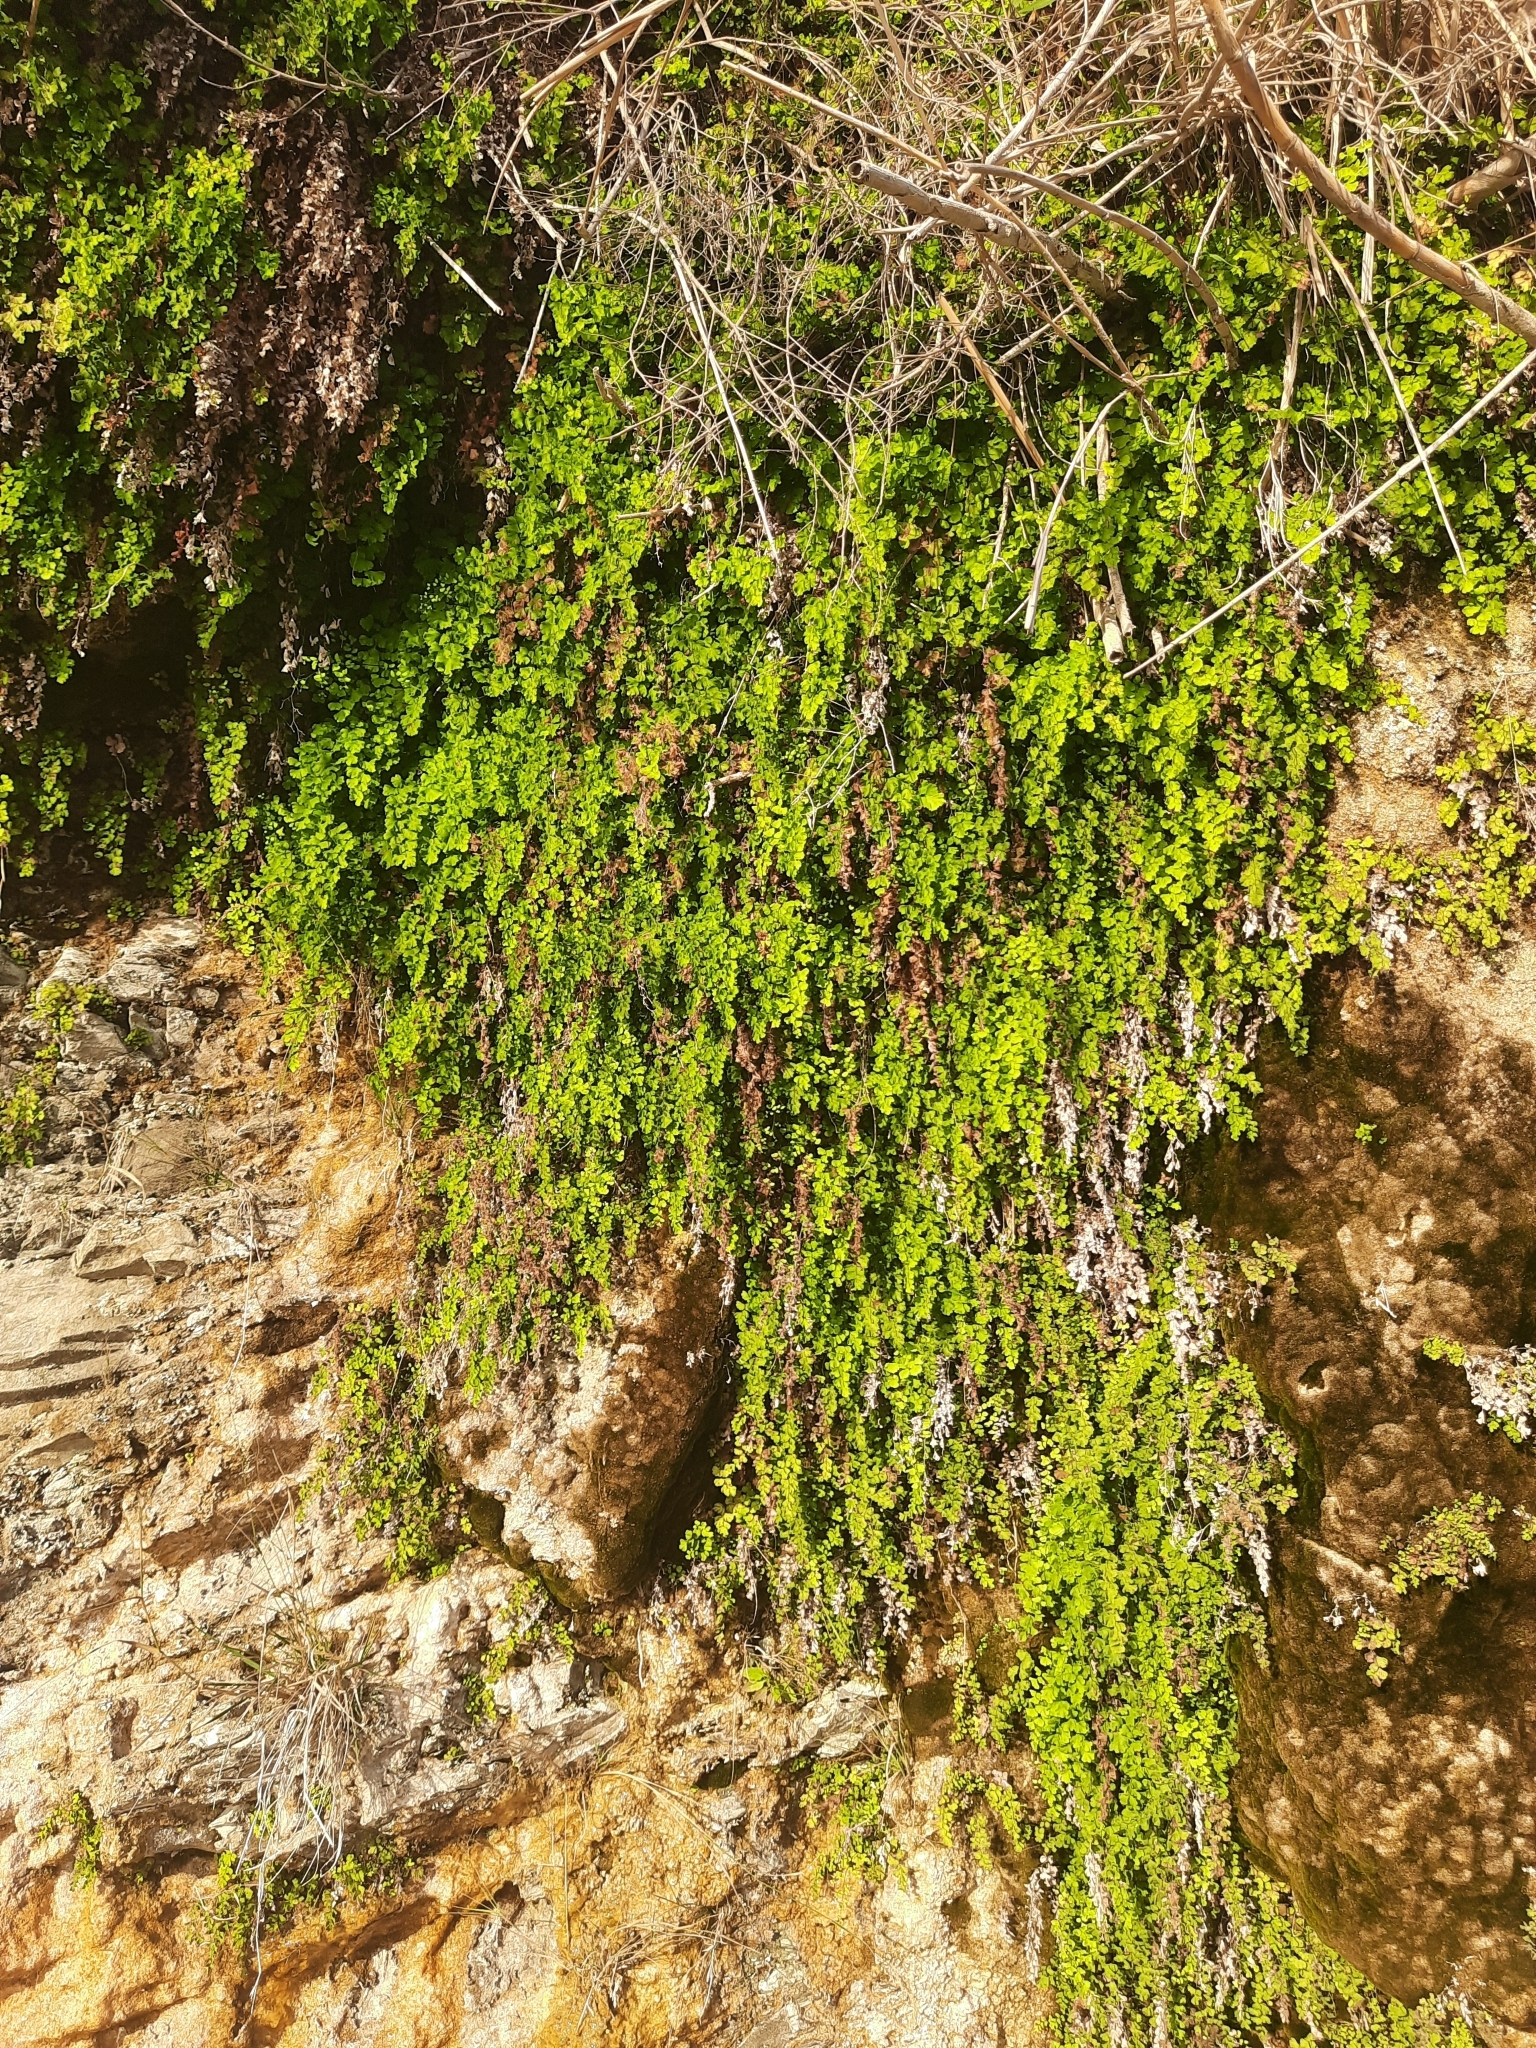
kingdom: Plantae
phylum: Tracheophyta
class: Polypodiopsida
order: Polypodiales
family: Pteridaceae
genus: Adiantum
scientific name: Adiantum capillus-veneris
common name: Maidenhair fern
